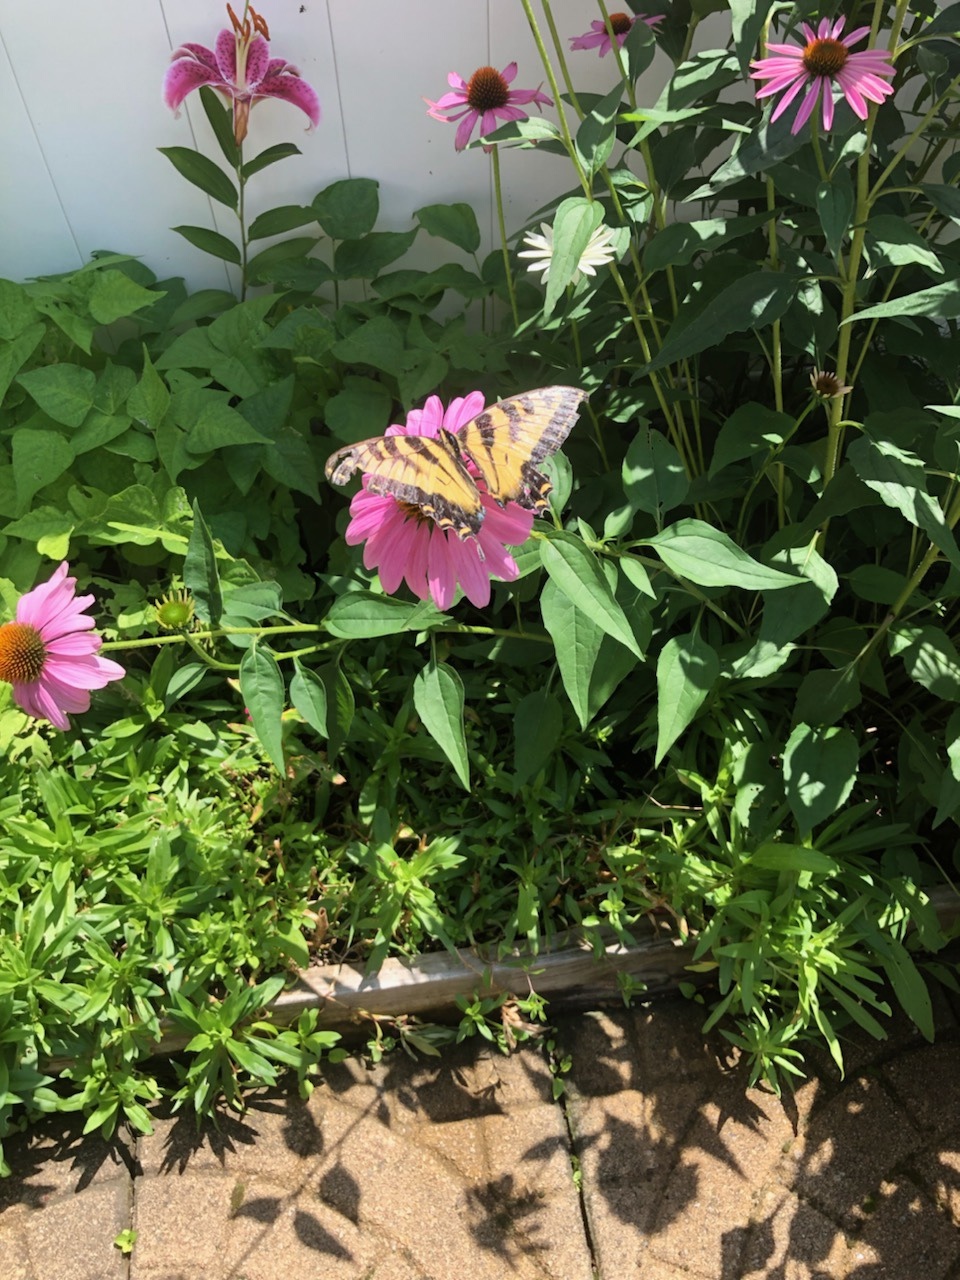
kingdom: Animalia
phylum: Arthropoda
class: Insecta
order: Lepidoptera
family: Papilionidae
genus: Papilio
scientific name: Papilio glaucus
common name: Tiger swallowtail
